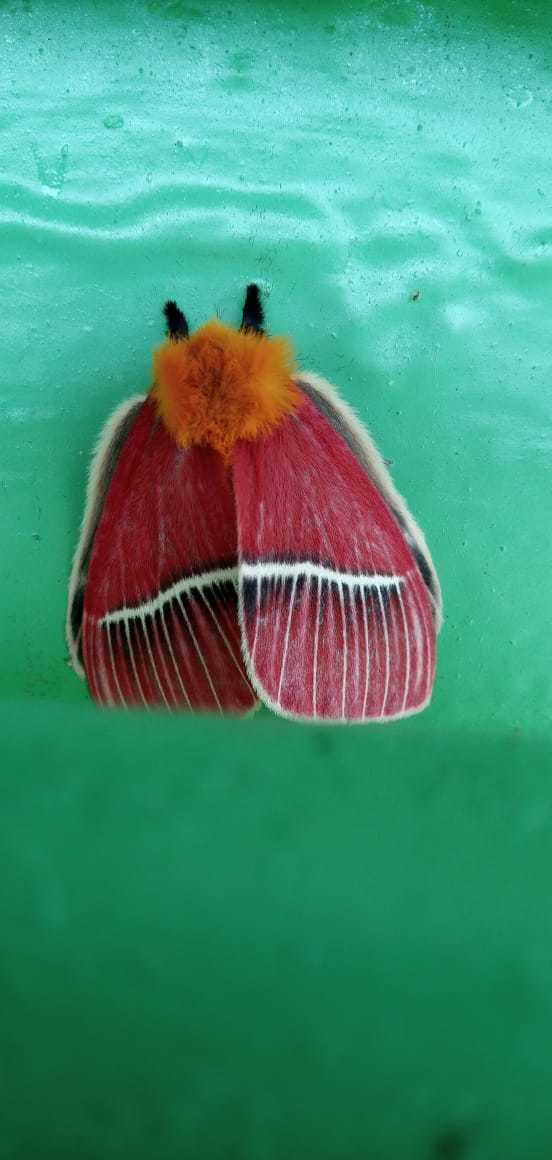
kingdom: Animalia
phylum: Arthropoda
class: Insecta
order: Lepidoptera
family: Saturniidae
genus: Pseudodirphia
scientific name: Pseudodirphia menander
